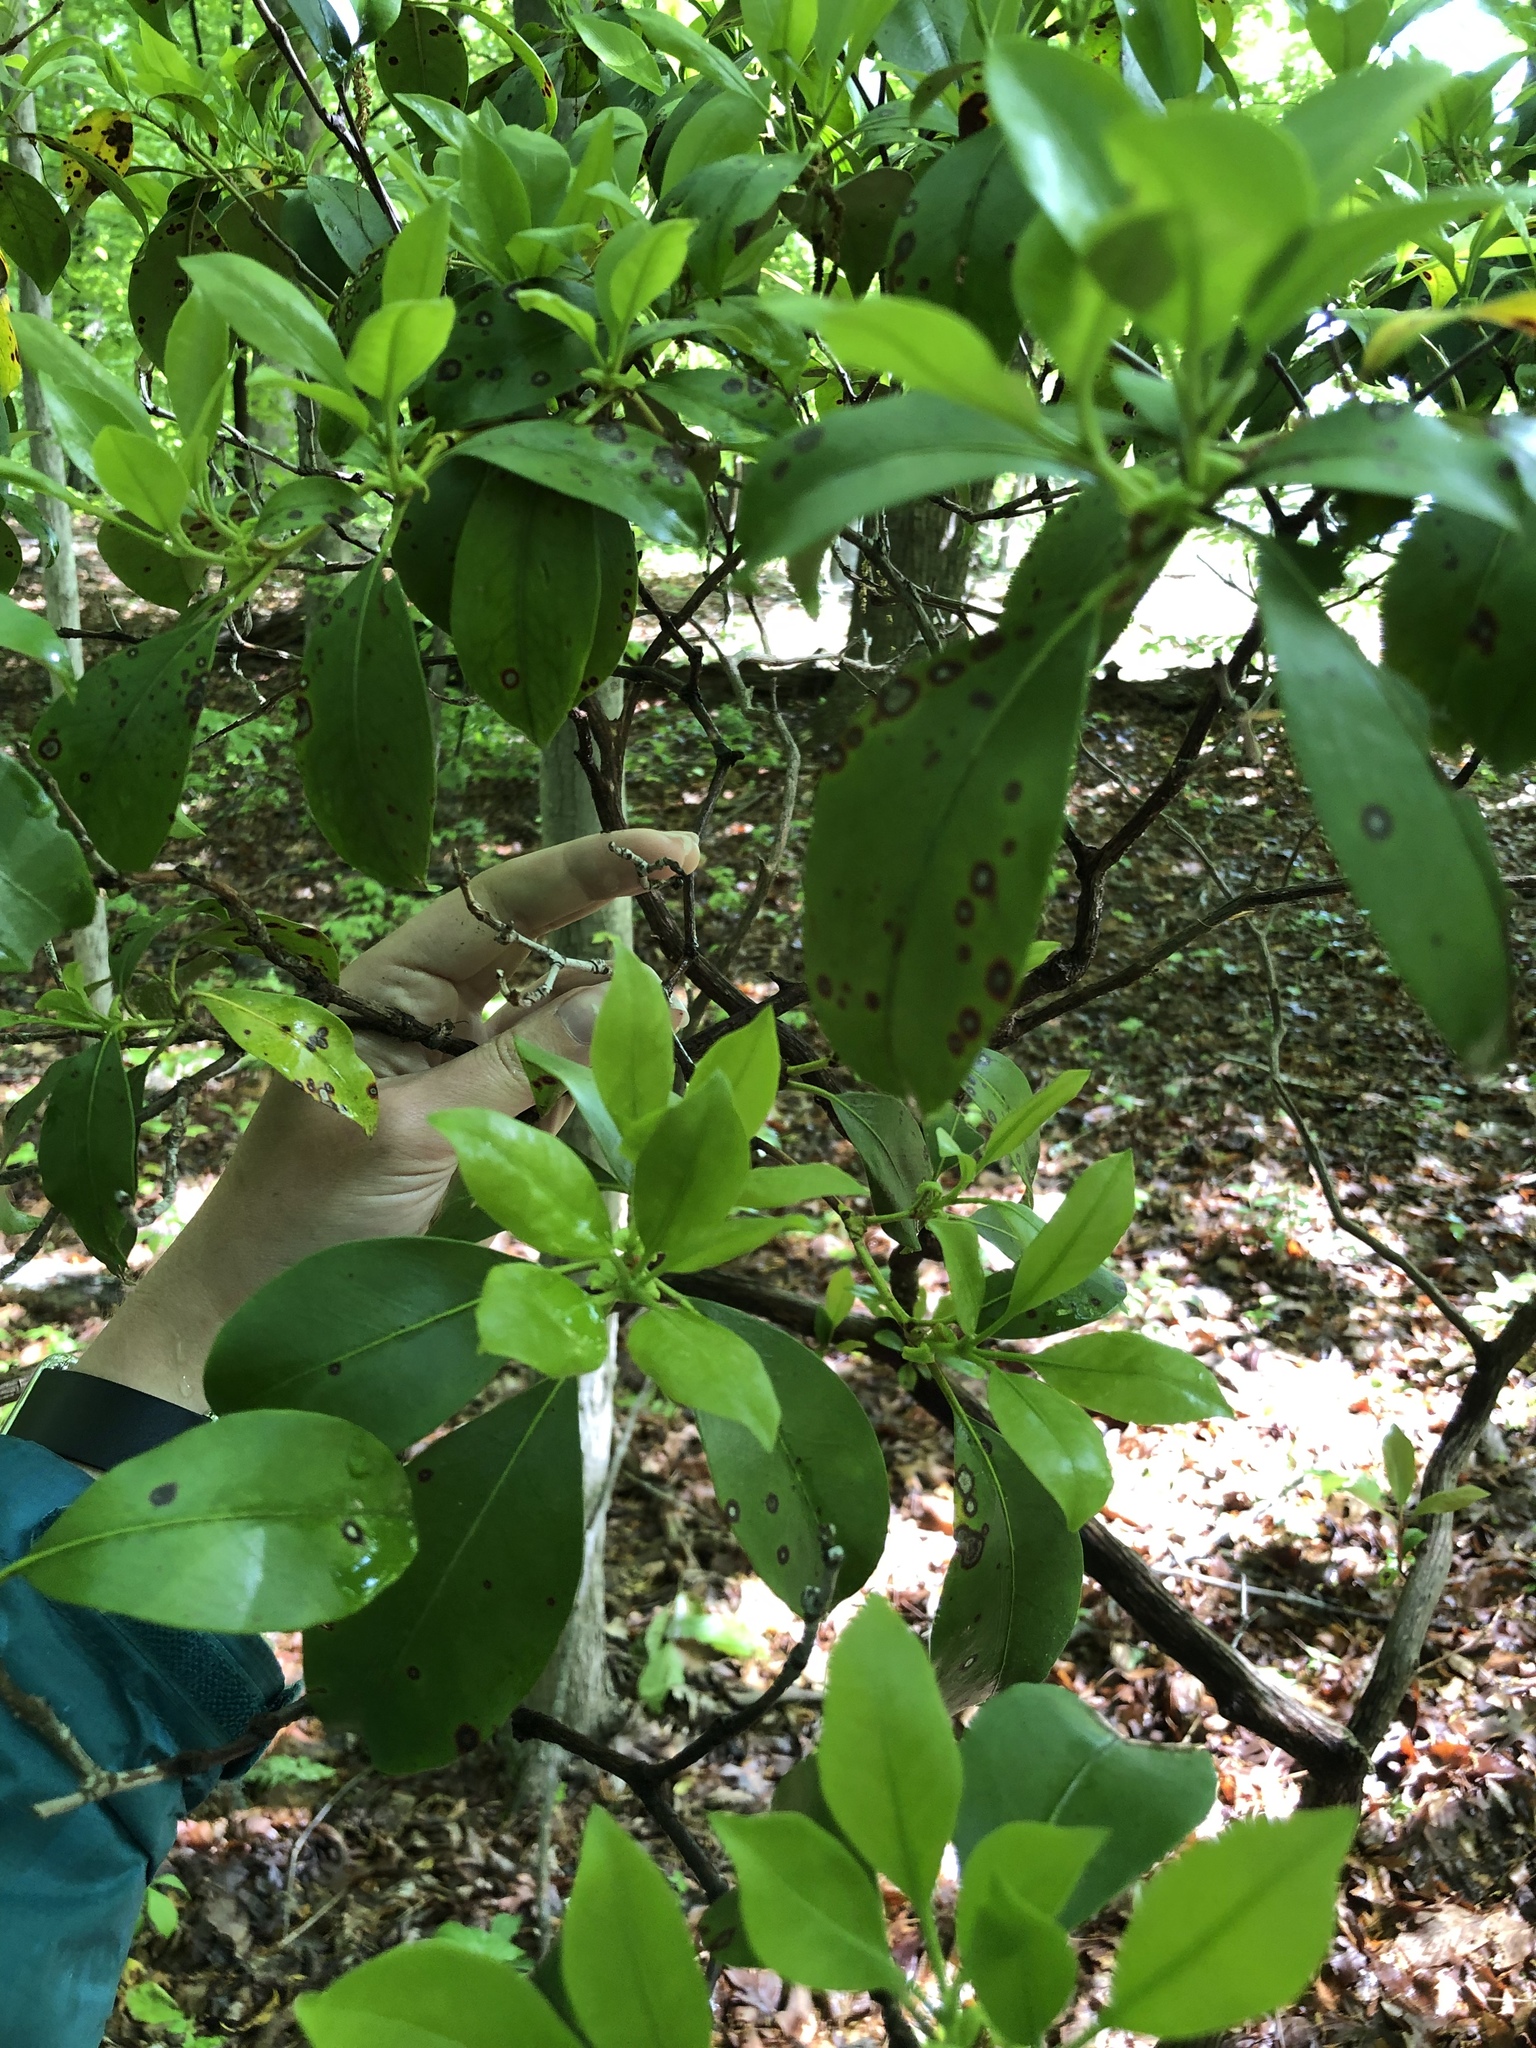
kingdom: Plantae
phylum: Tracheophyta
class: Magnoliopsida
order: Ericales
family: Ericaceae
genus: Kalmia
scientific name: Kalmia latifolia
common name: Mountain-laurel
